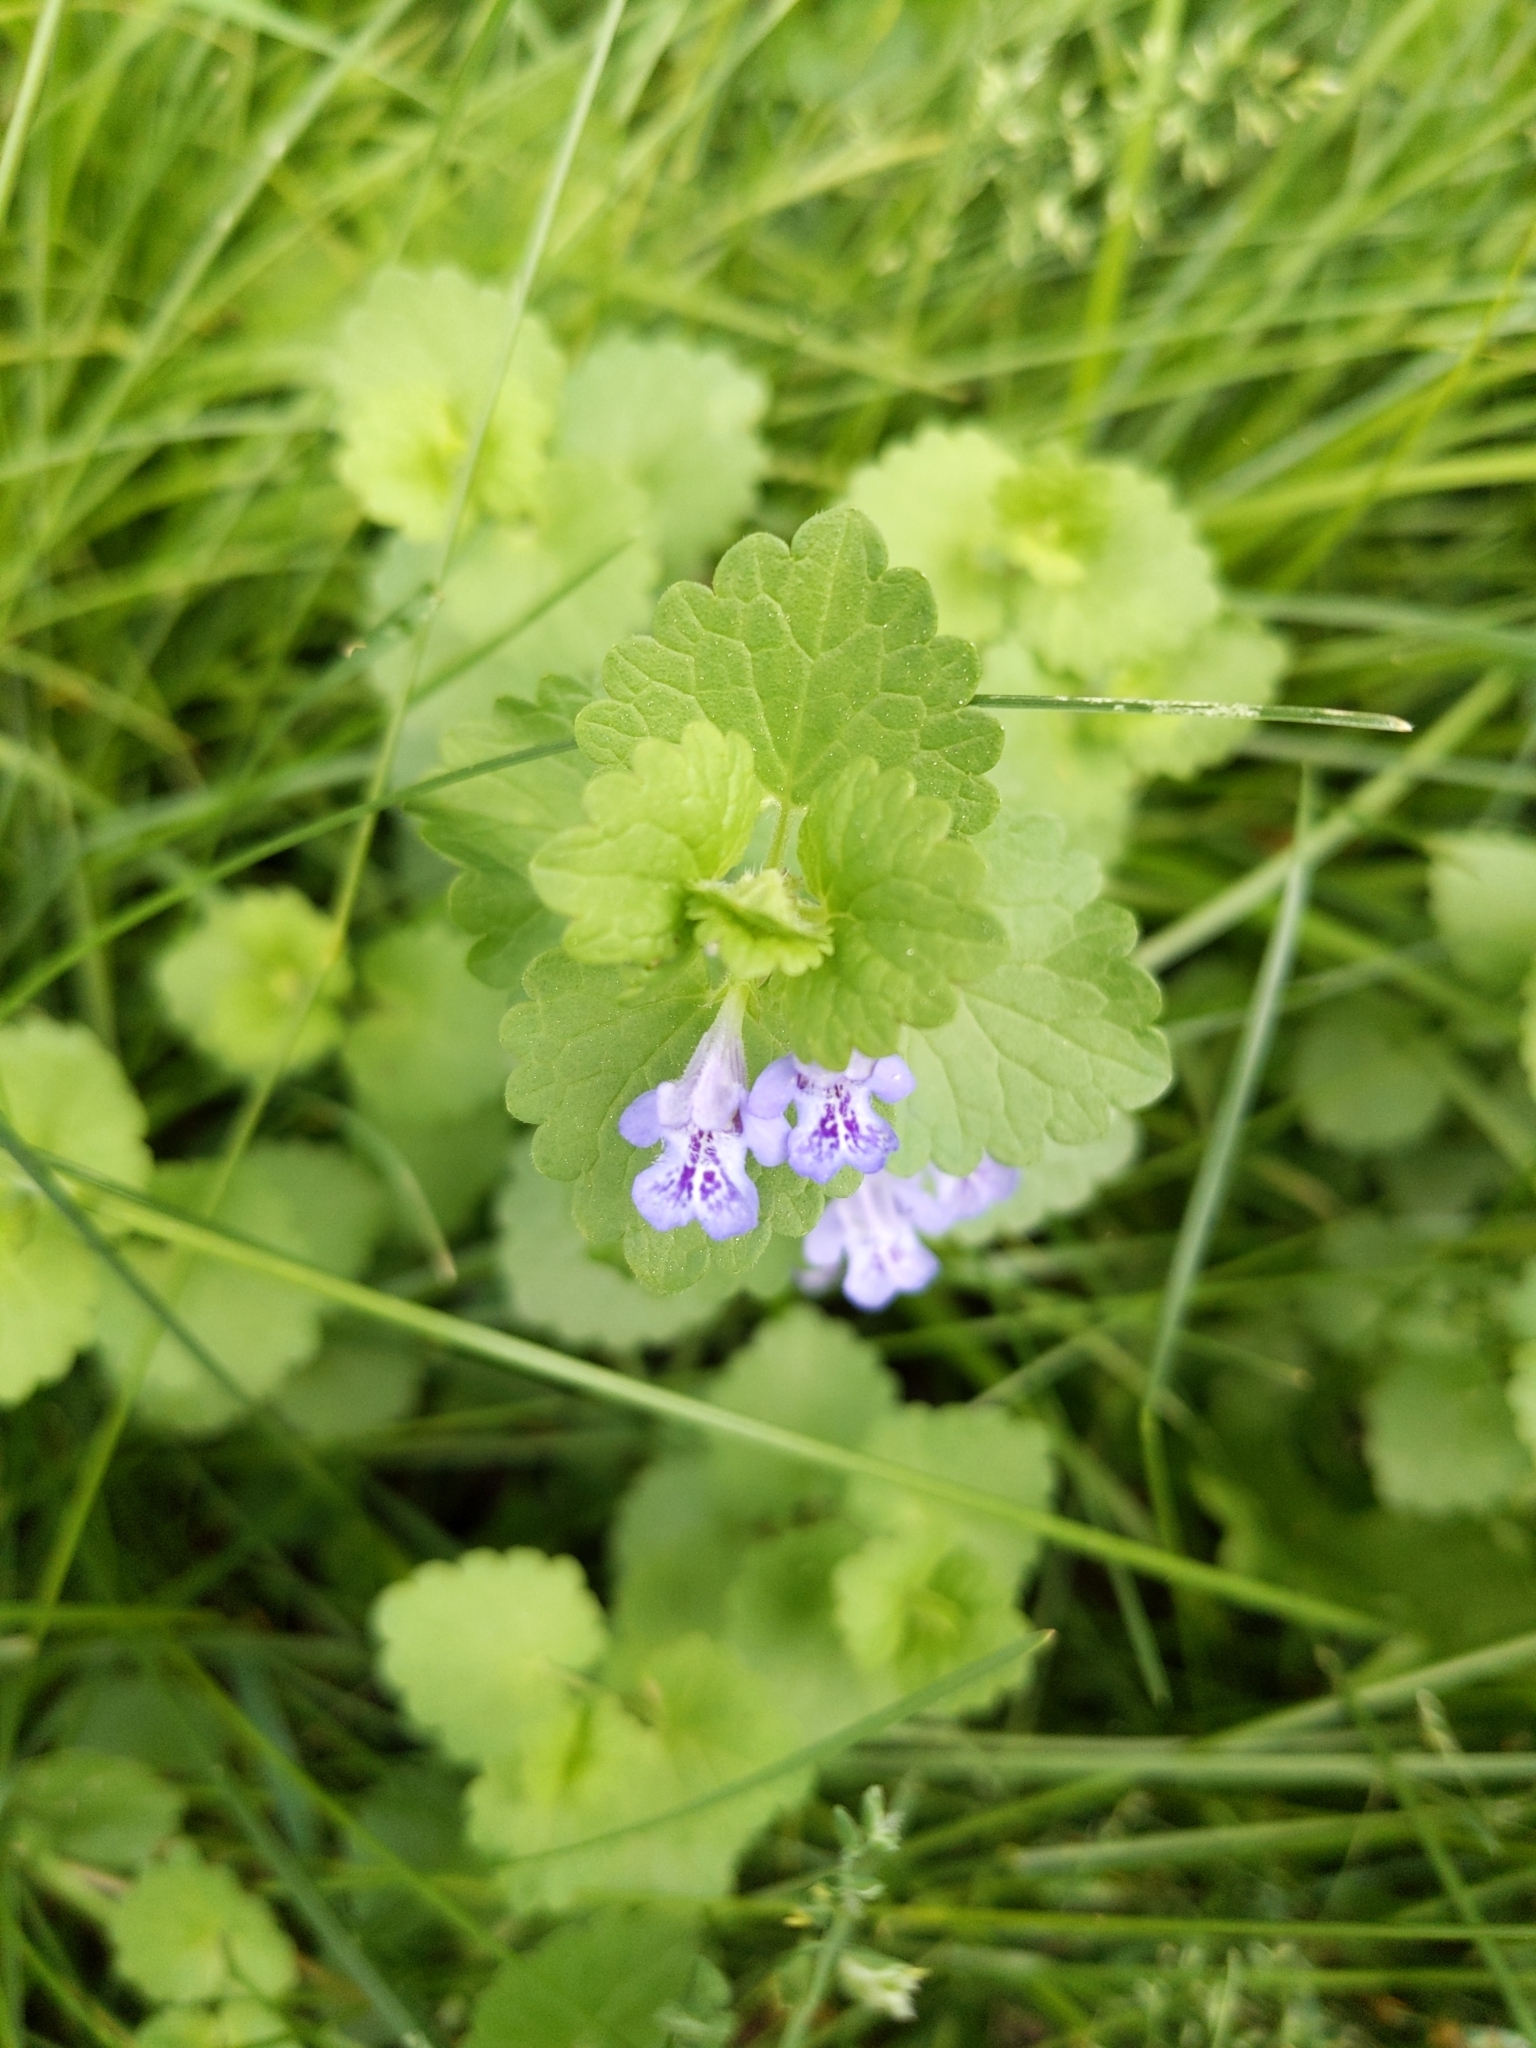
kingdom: Plantae
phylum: Tracheophyta
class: Magnoliopsida
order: Lamiales
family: Lamiaceae
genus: Glechoma
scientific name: Glechoma hederacea
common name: Ground ivy
